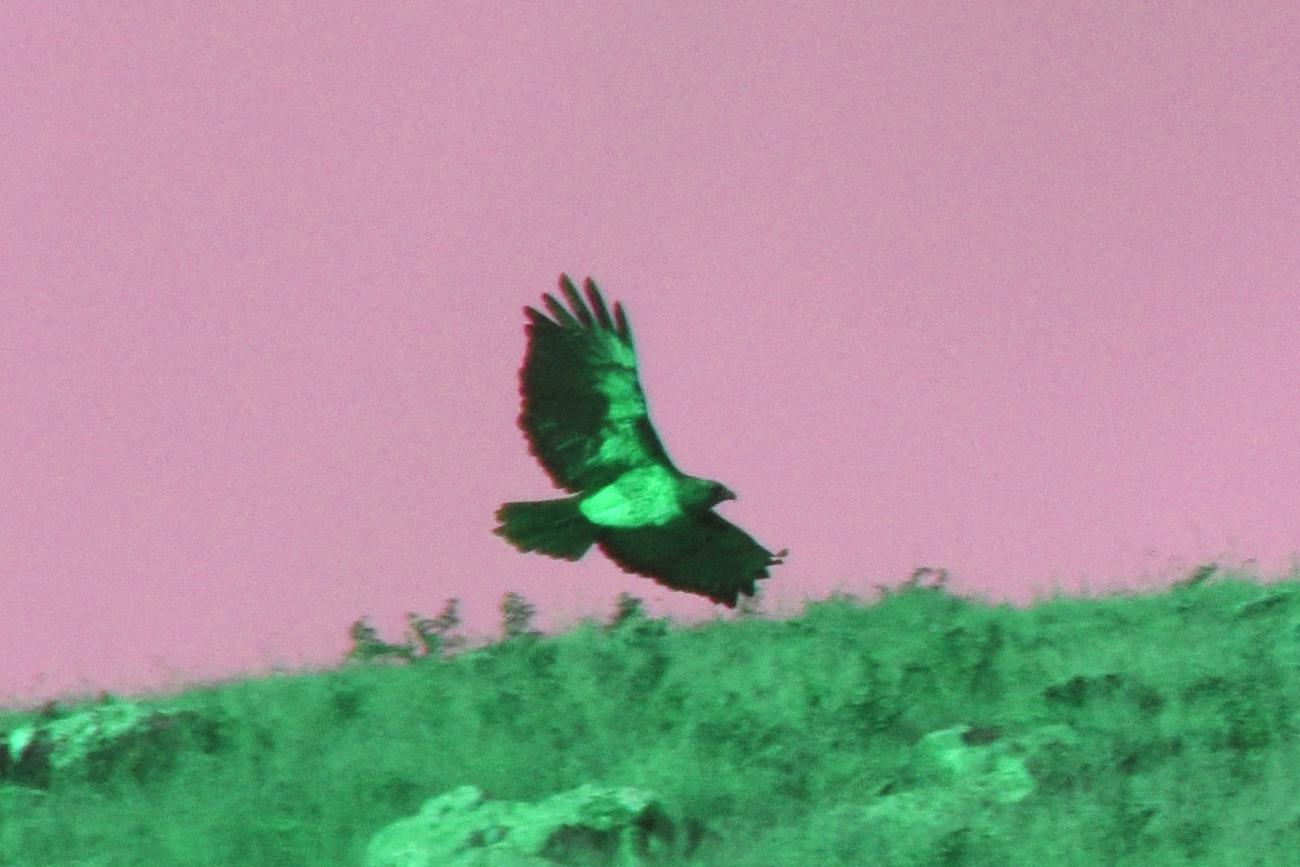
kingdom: Animalia
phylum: Chordata
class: Aves
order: Accipitriformes
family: Accipitridae
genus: Buteo
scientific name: Buteo jamaicensis
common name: Red-tailed hawk
